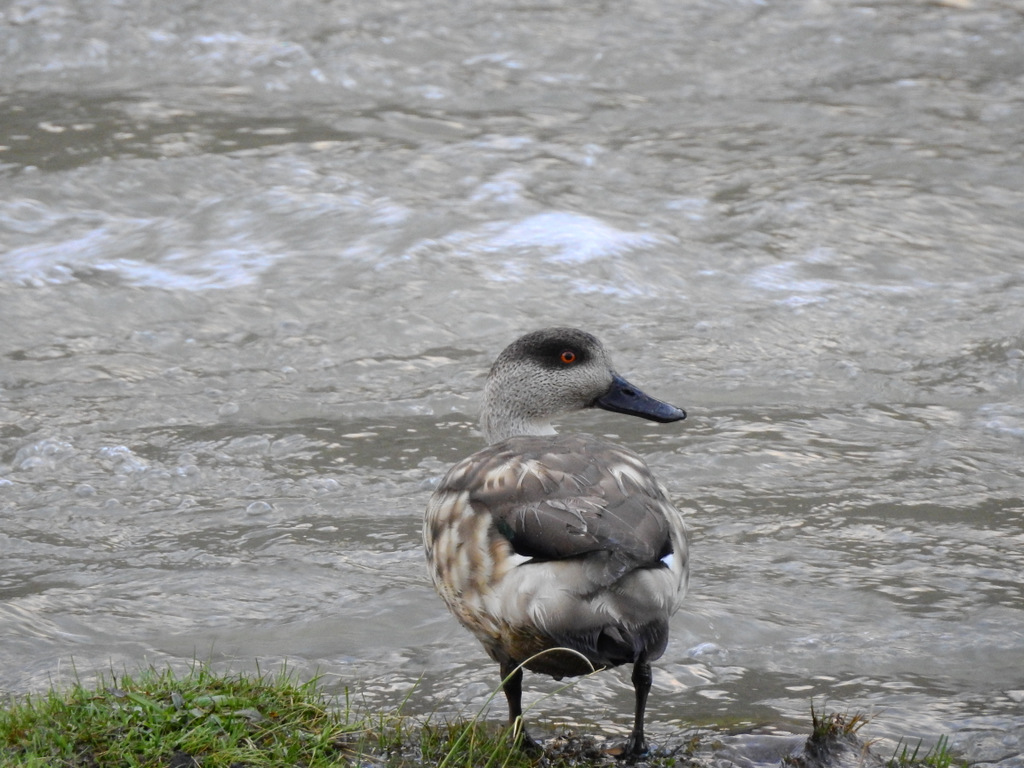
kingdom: Animalia
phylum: Chordata
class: Aves
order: Anseriformes
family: Anatidae
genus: Lophonetta
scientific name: Lophonetta specularioides
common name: Crested duck
